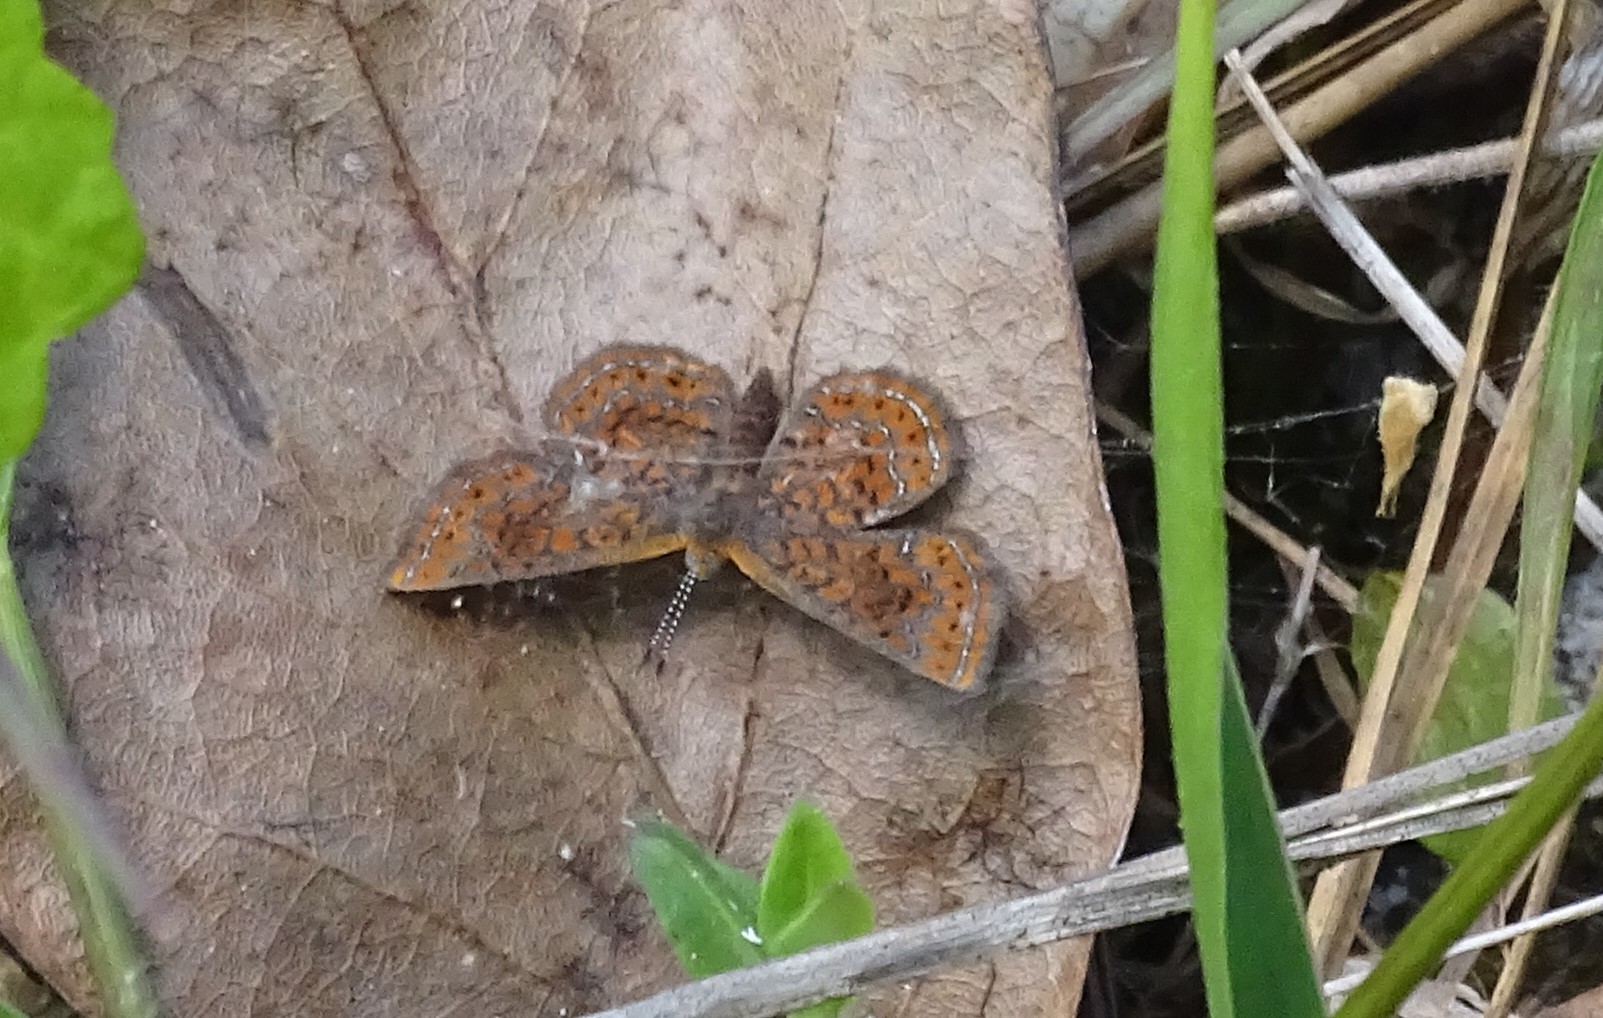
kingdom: Animalia
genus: Calephelis
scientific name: Calephelis virginiensis
